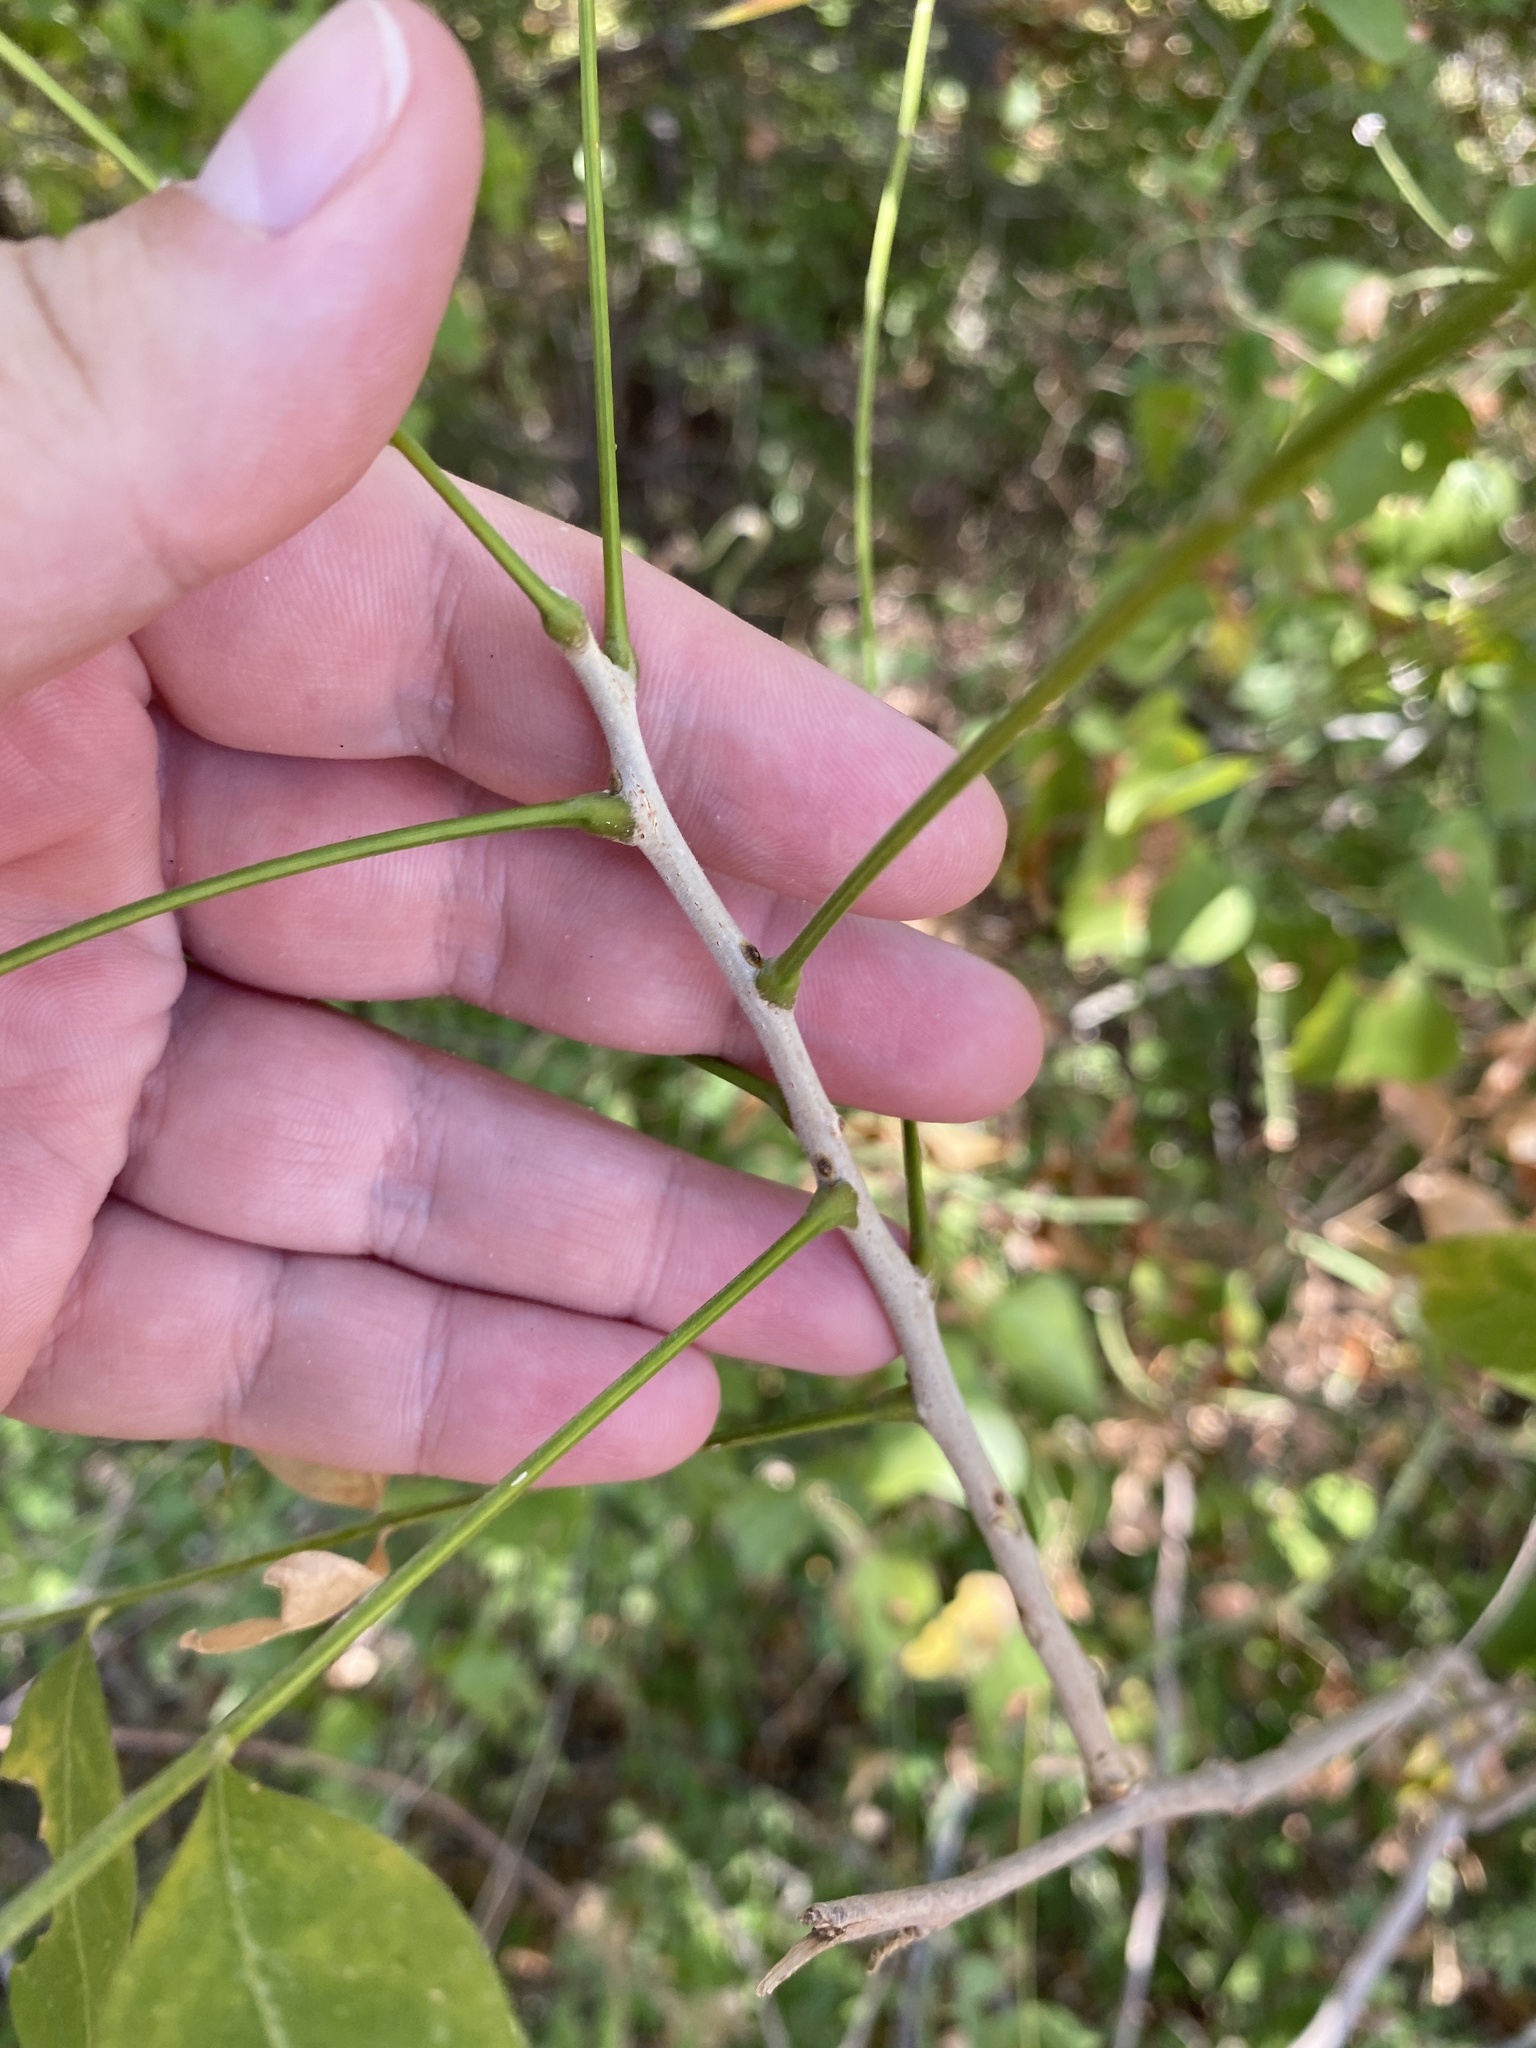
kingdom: Plantae
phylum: Tracheophyta
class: Magnoliopsida
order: Sapindales
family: Sapindaceae
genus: Sapindus
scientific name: Sapindus drummondii
